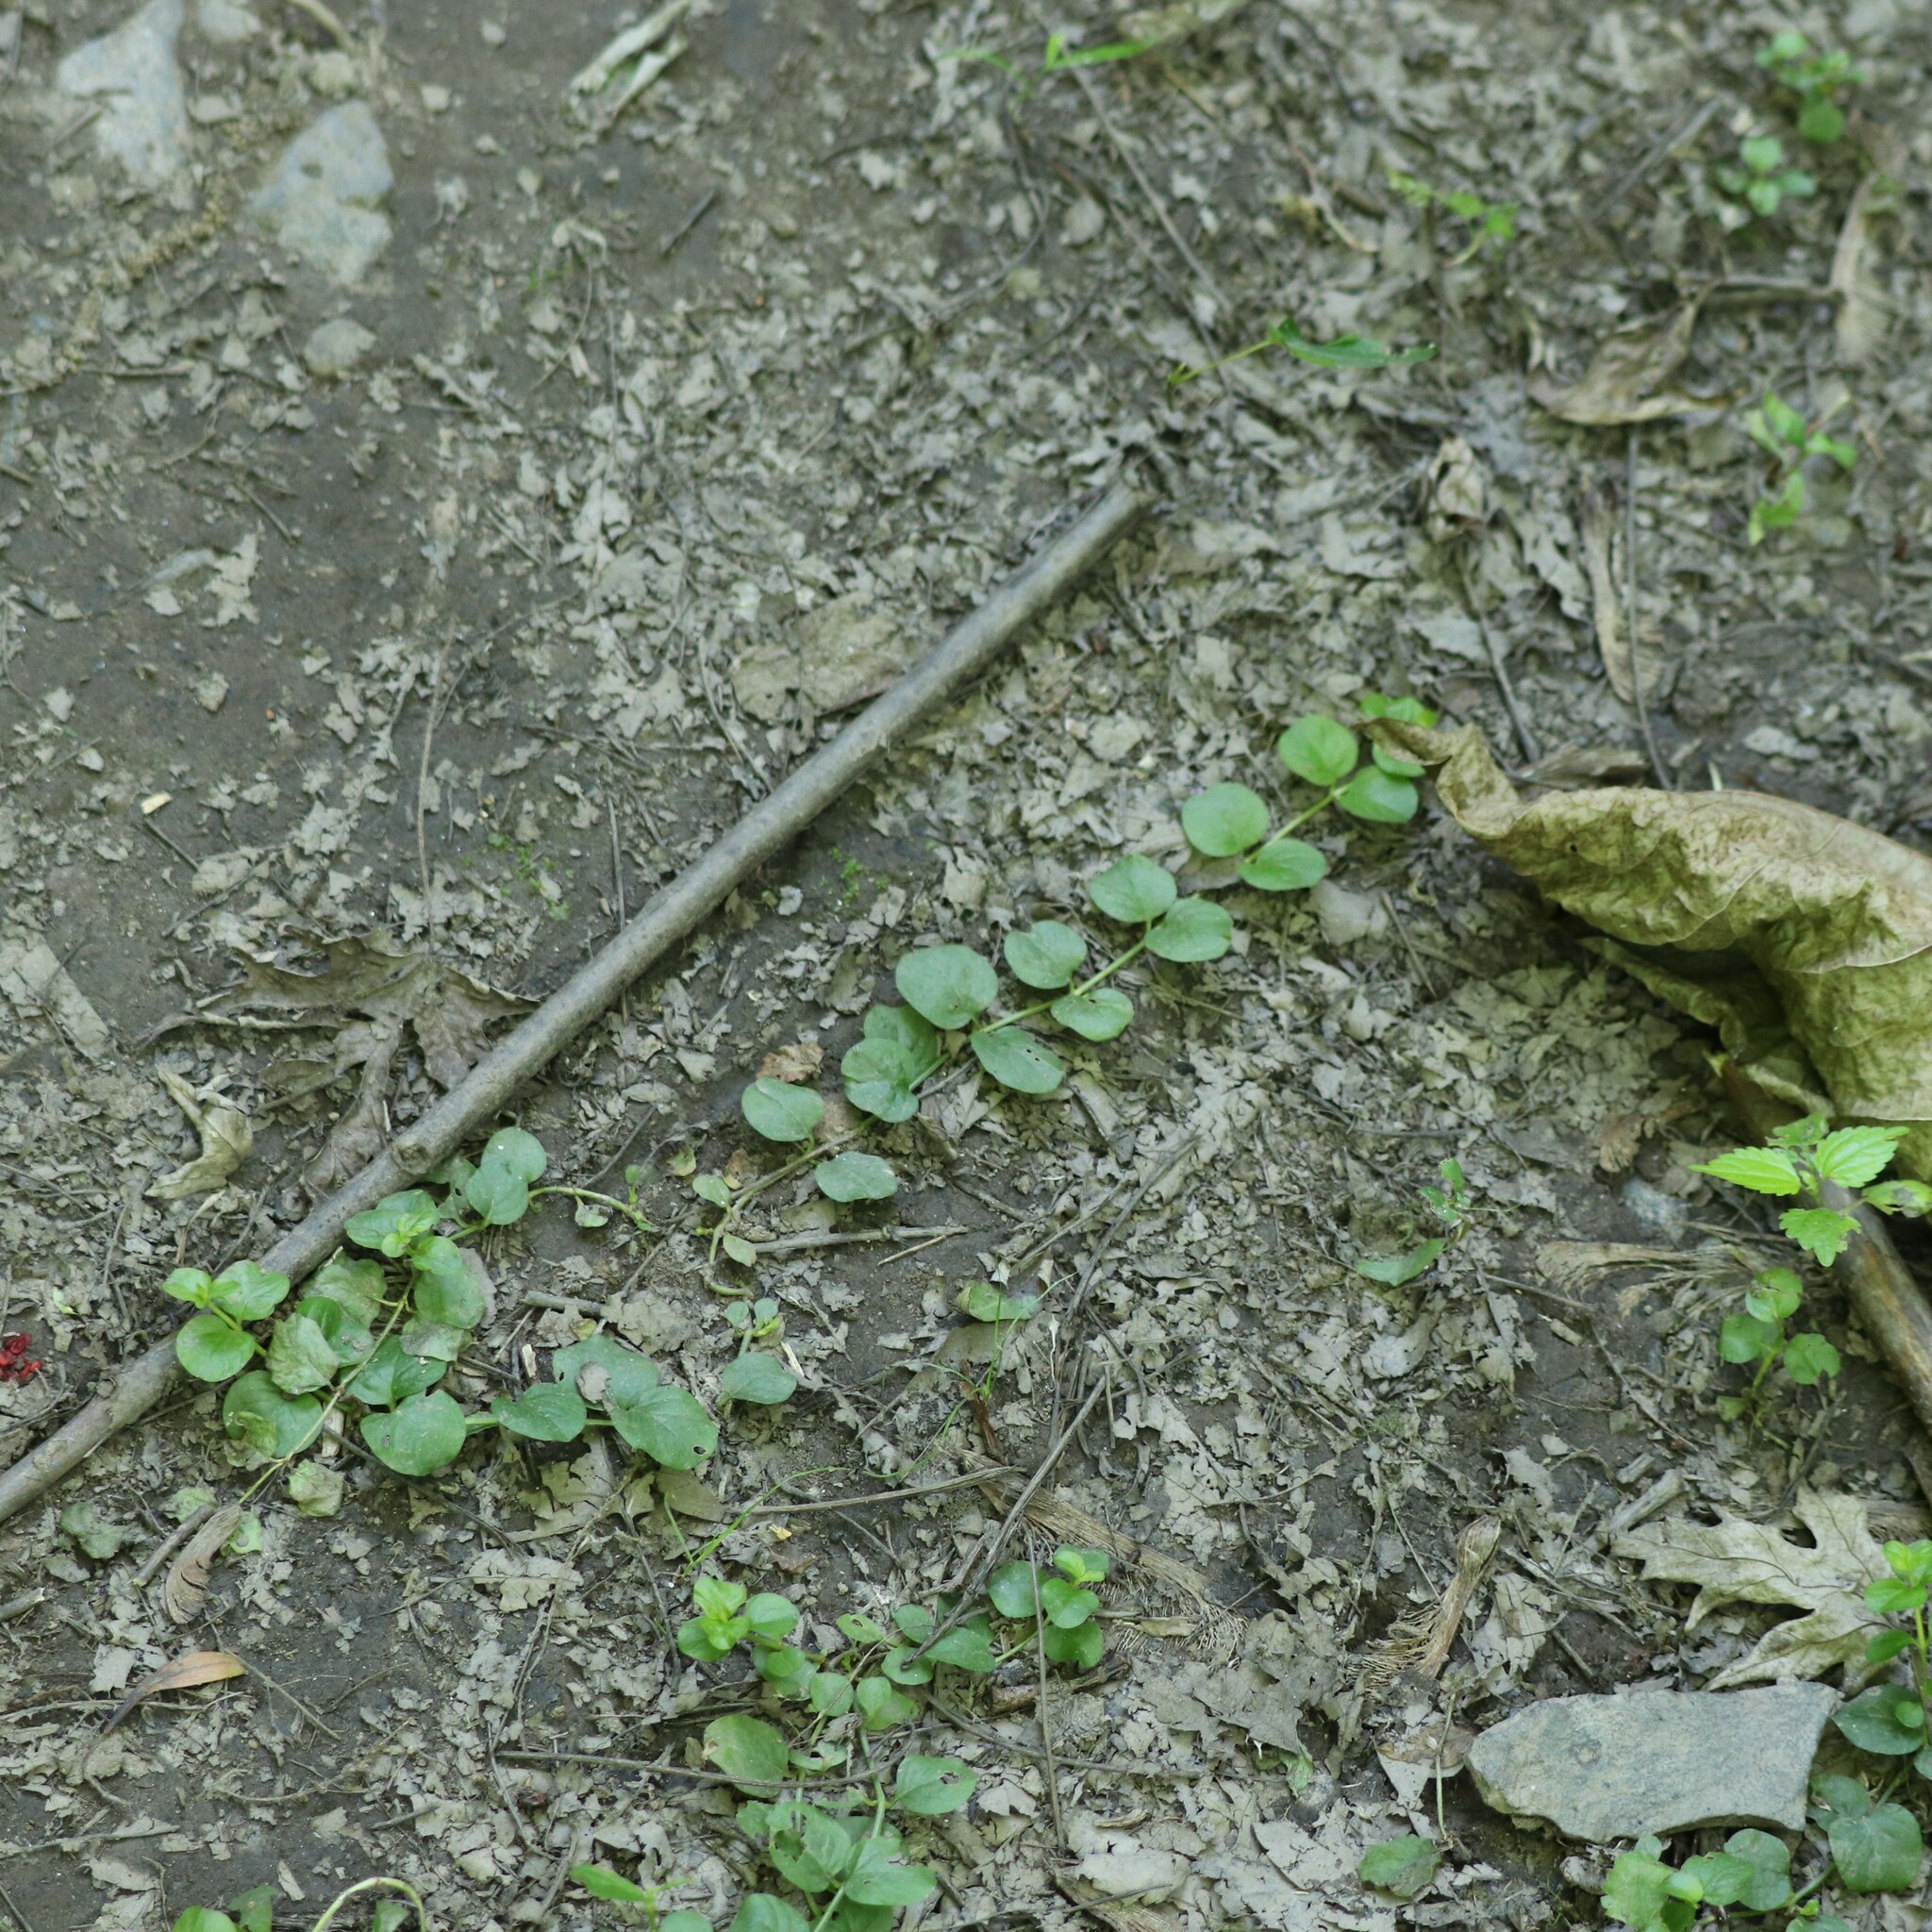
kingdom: Plantae
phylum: Tracheophyta
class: Magnoliopsida
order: Ericales
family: Primulaceae
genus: Lysimachia
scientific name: Lysimachia nummularia
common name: Moneywort
